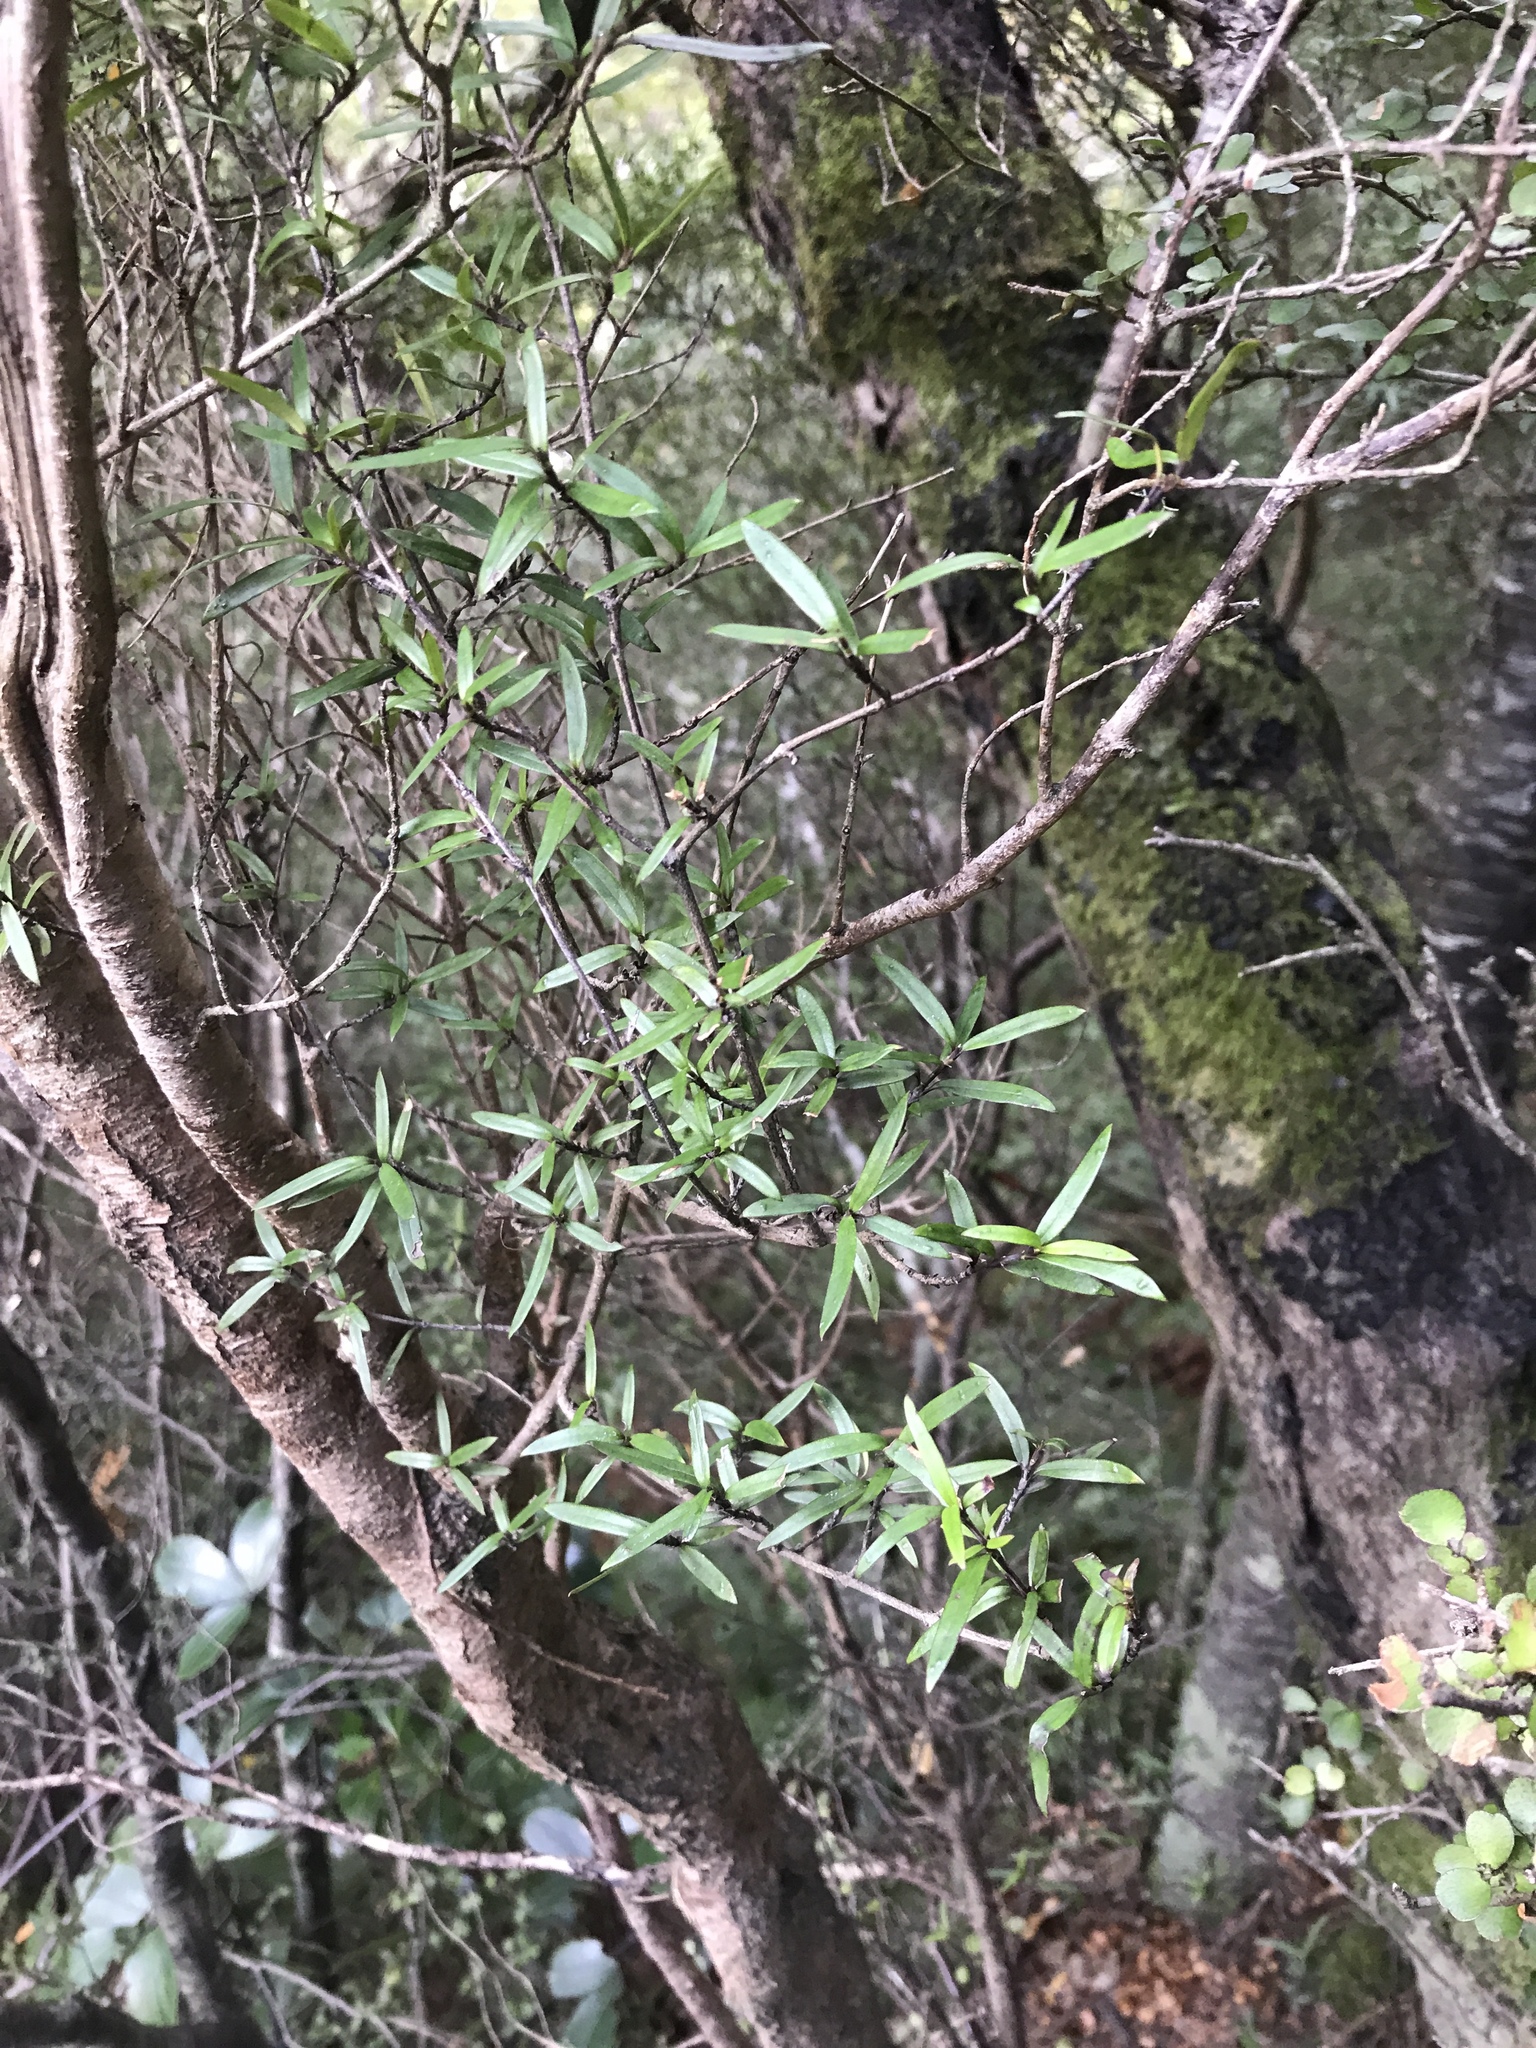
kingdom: Plantae
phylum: Tracheophyta
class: Magnoliopsida
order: Gentianales
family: Rubiaceae
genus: Coprosma
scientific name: Coprosma linariifolia
